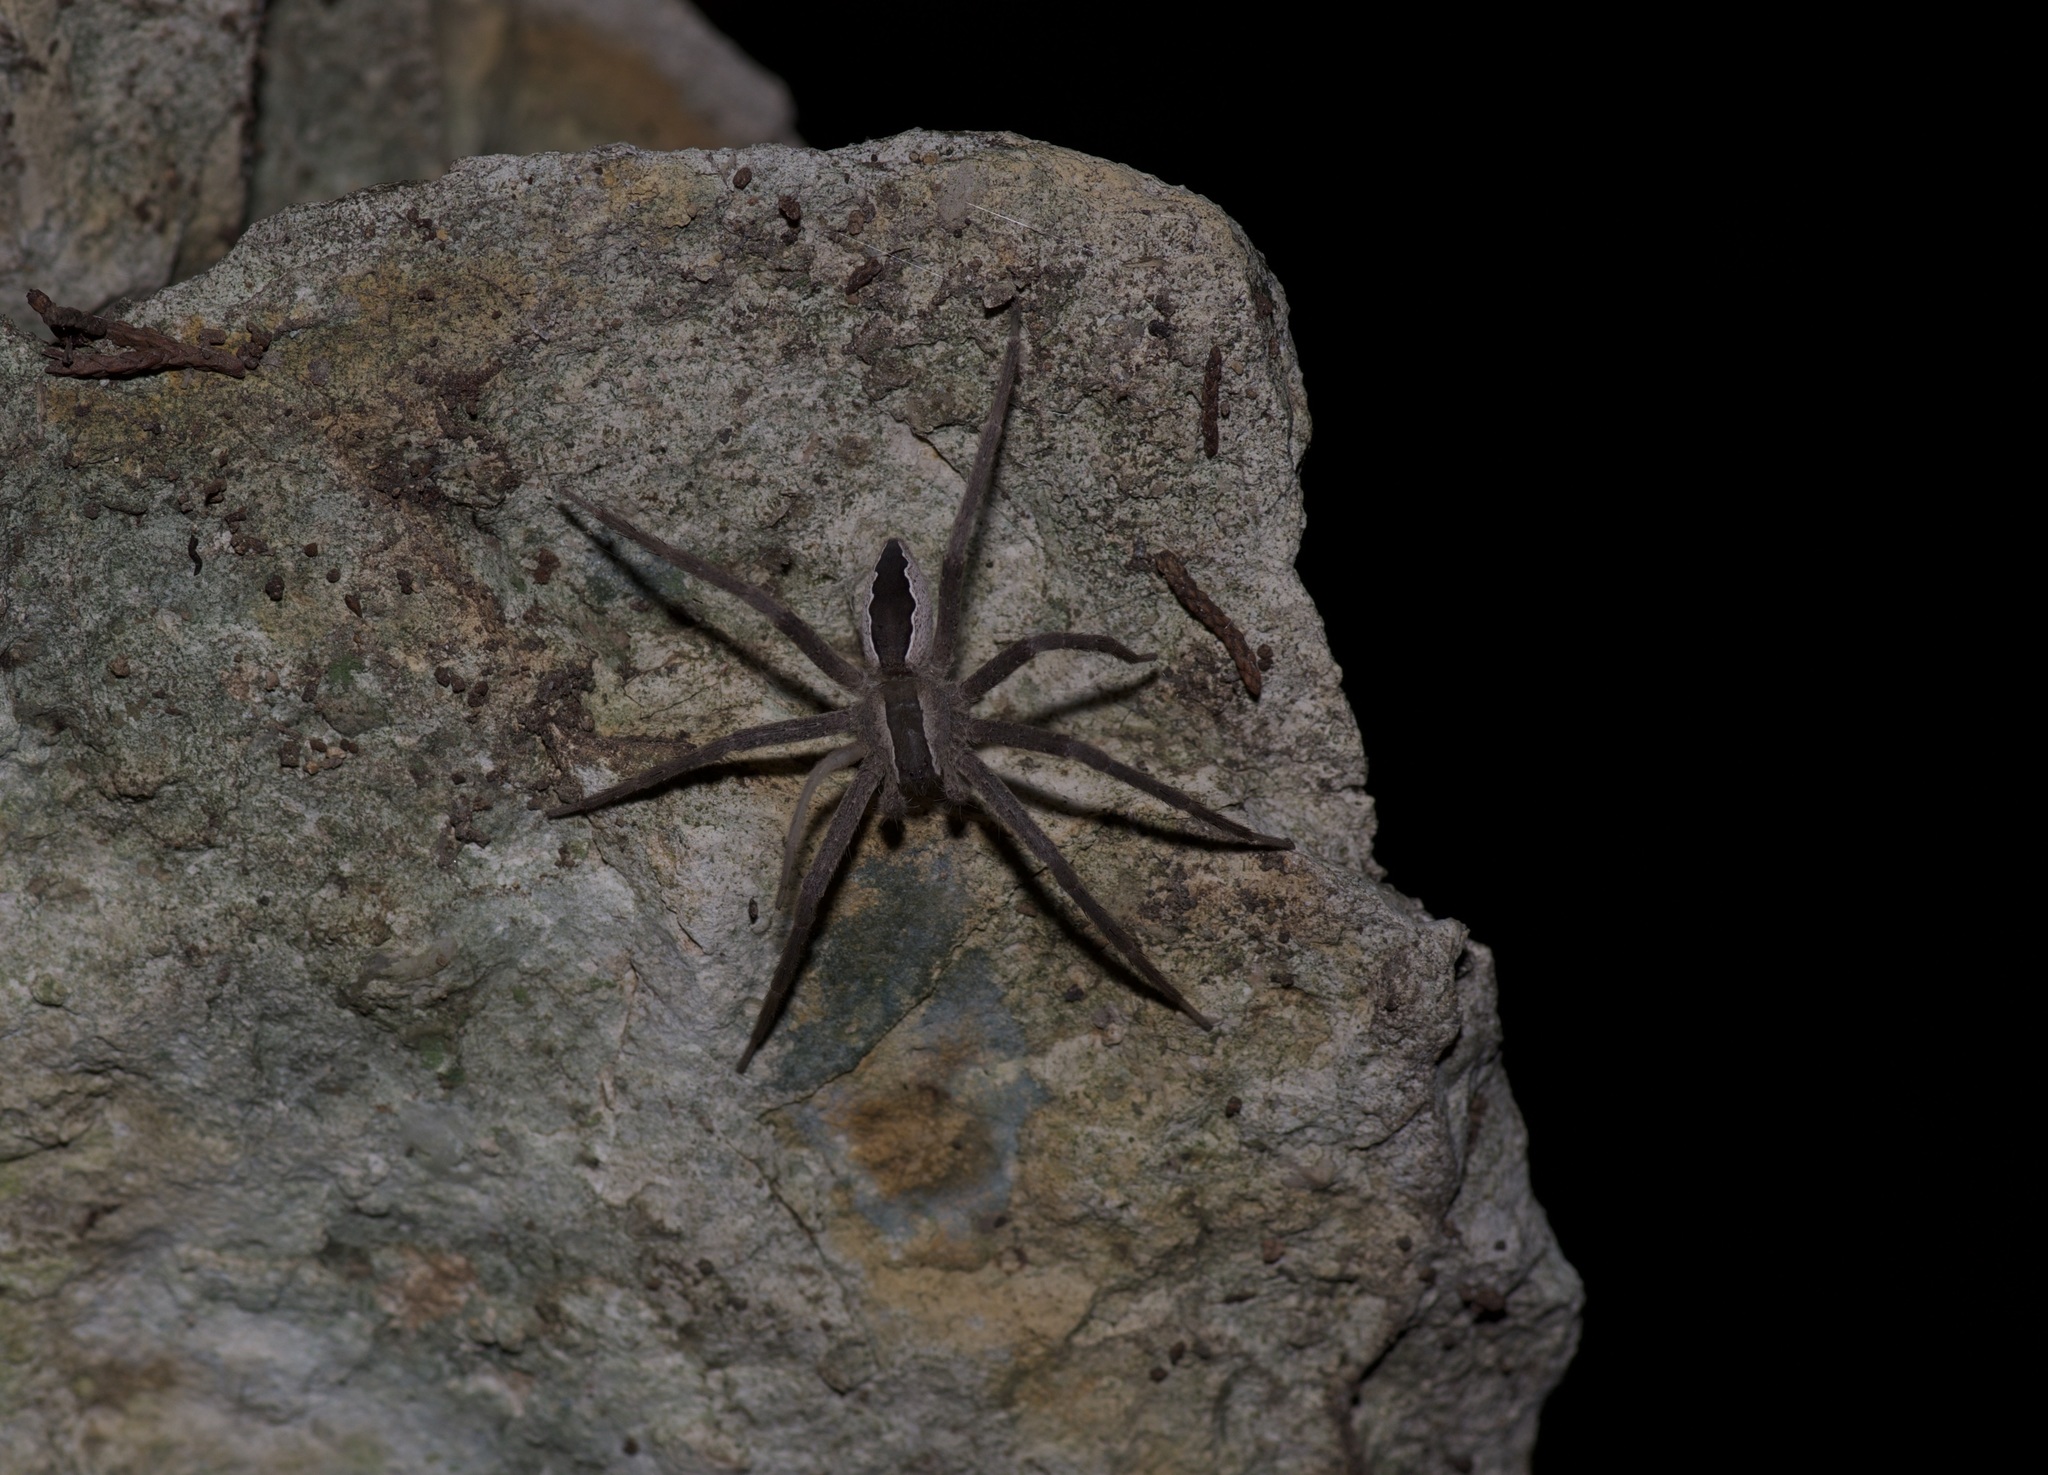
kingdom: Animalia
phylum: Arthropoda
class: Arachnida
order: Araneae
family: Pisauridae
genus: Pisaurina
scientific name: Pisaurina mira
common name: American nursery web spider
